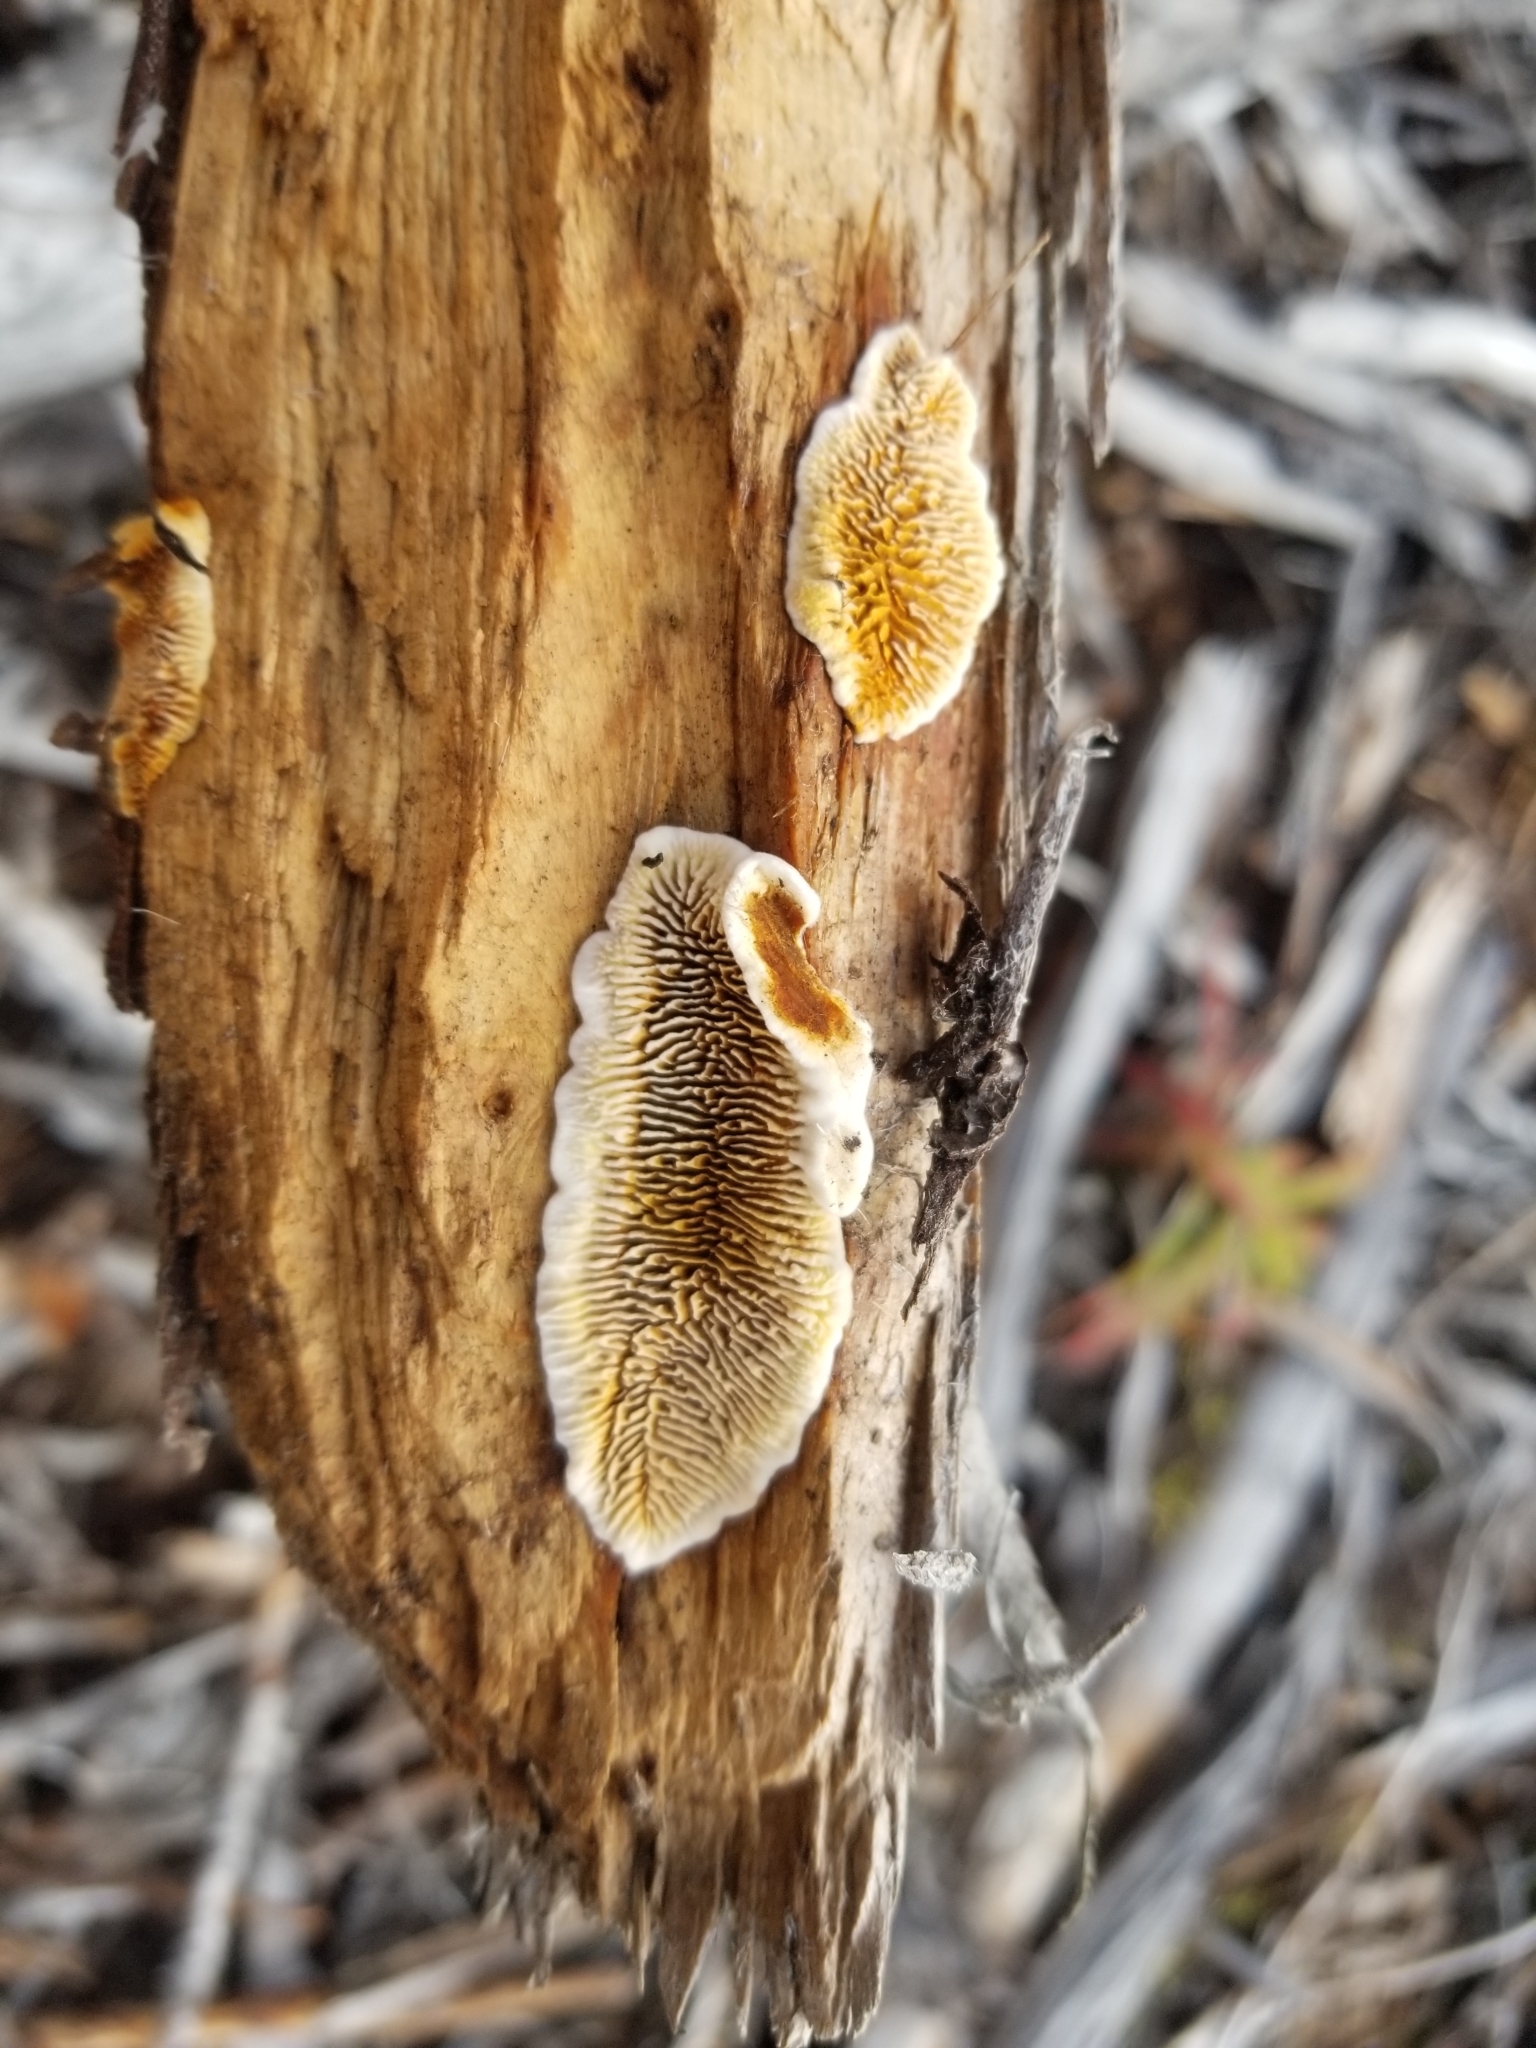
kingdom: Fungi
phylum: Basidiomycota
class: Agaricomycetes
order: Gloeophyllales
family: Gloeophyllaceae
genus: Gloeophyllum
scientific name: Gloeophyllum sepiarium
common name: Conifer mazegill
